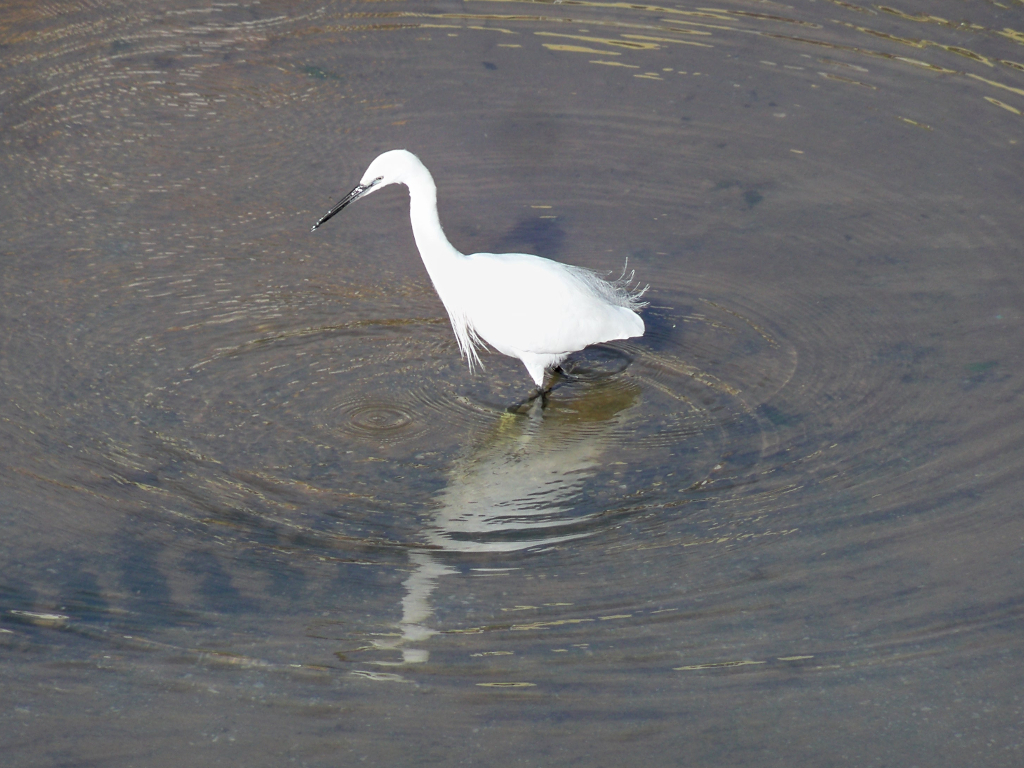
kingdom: Animalia
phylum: Chordata
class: Aves
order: Pelecaniformes
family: Ardeidae
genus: Egretta
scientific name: Egretta garzetta
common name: Little egret
